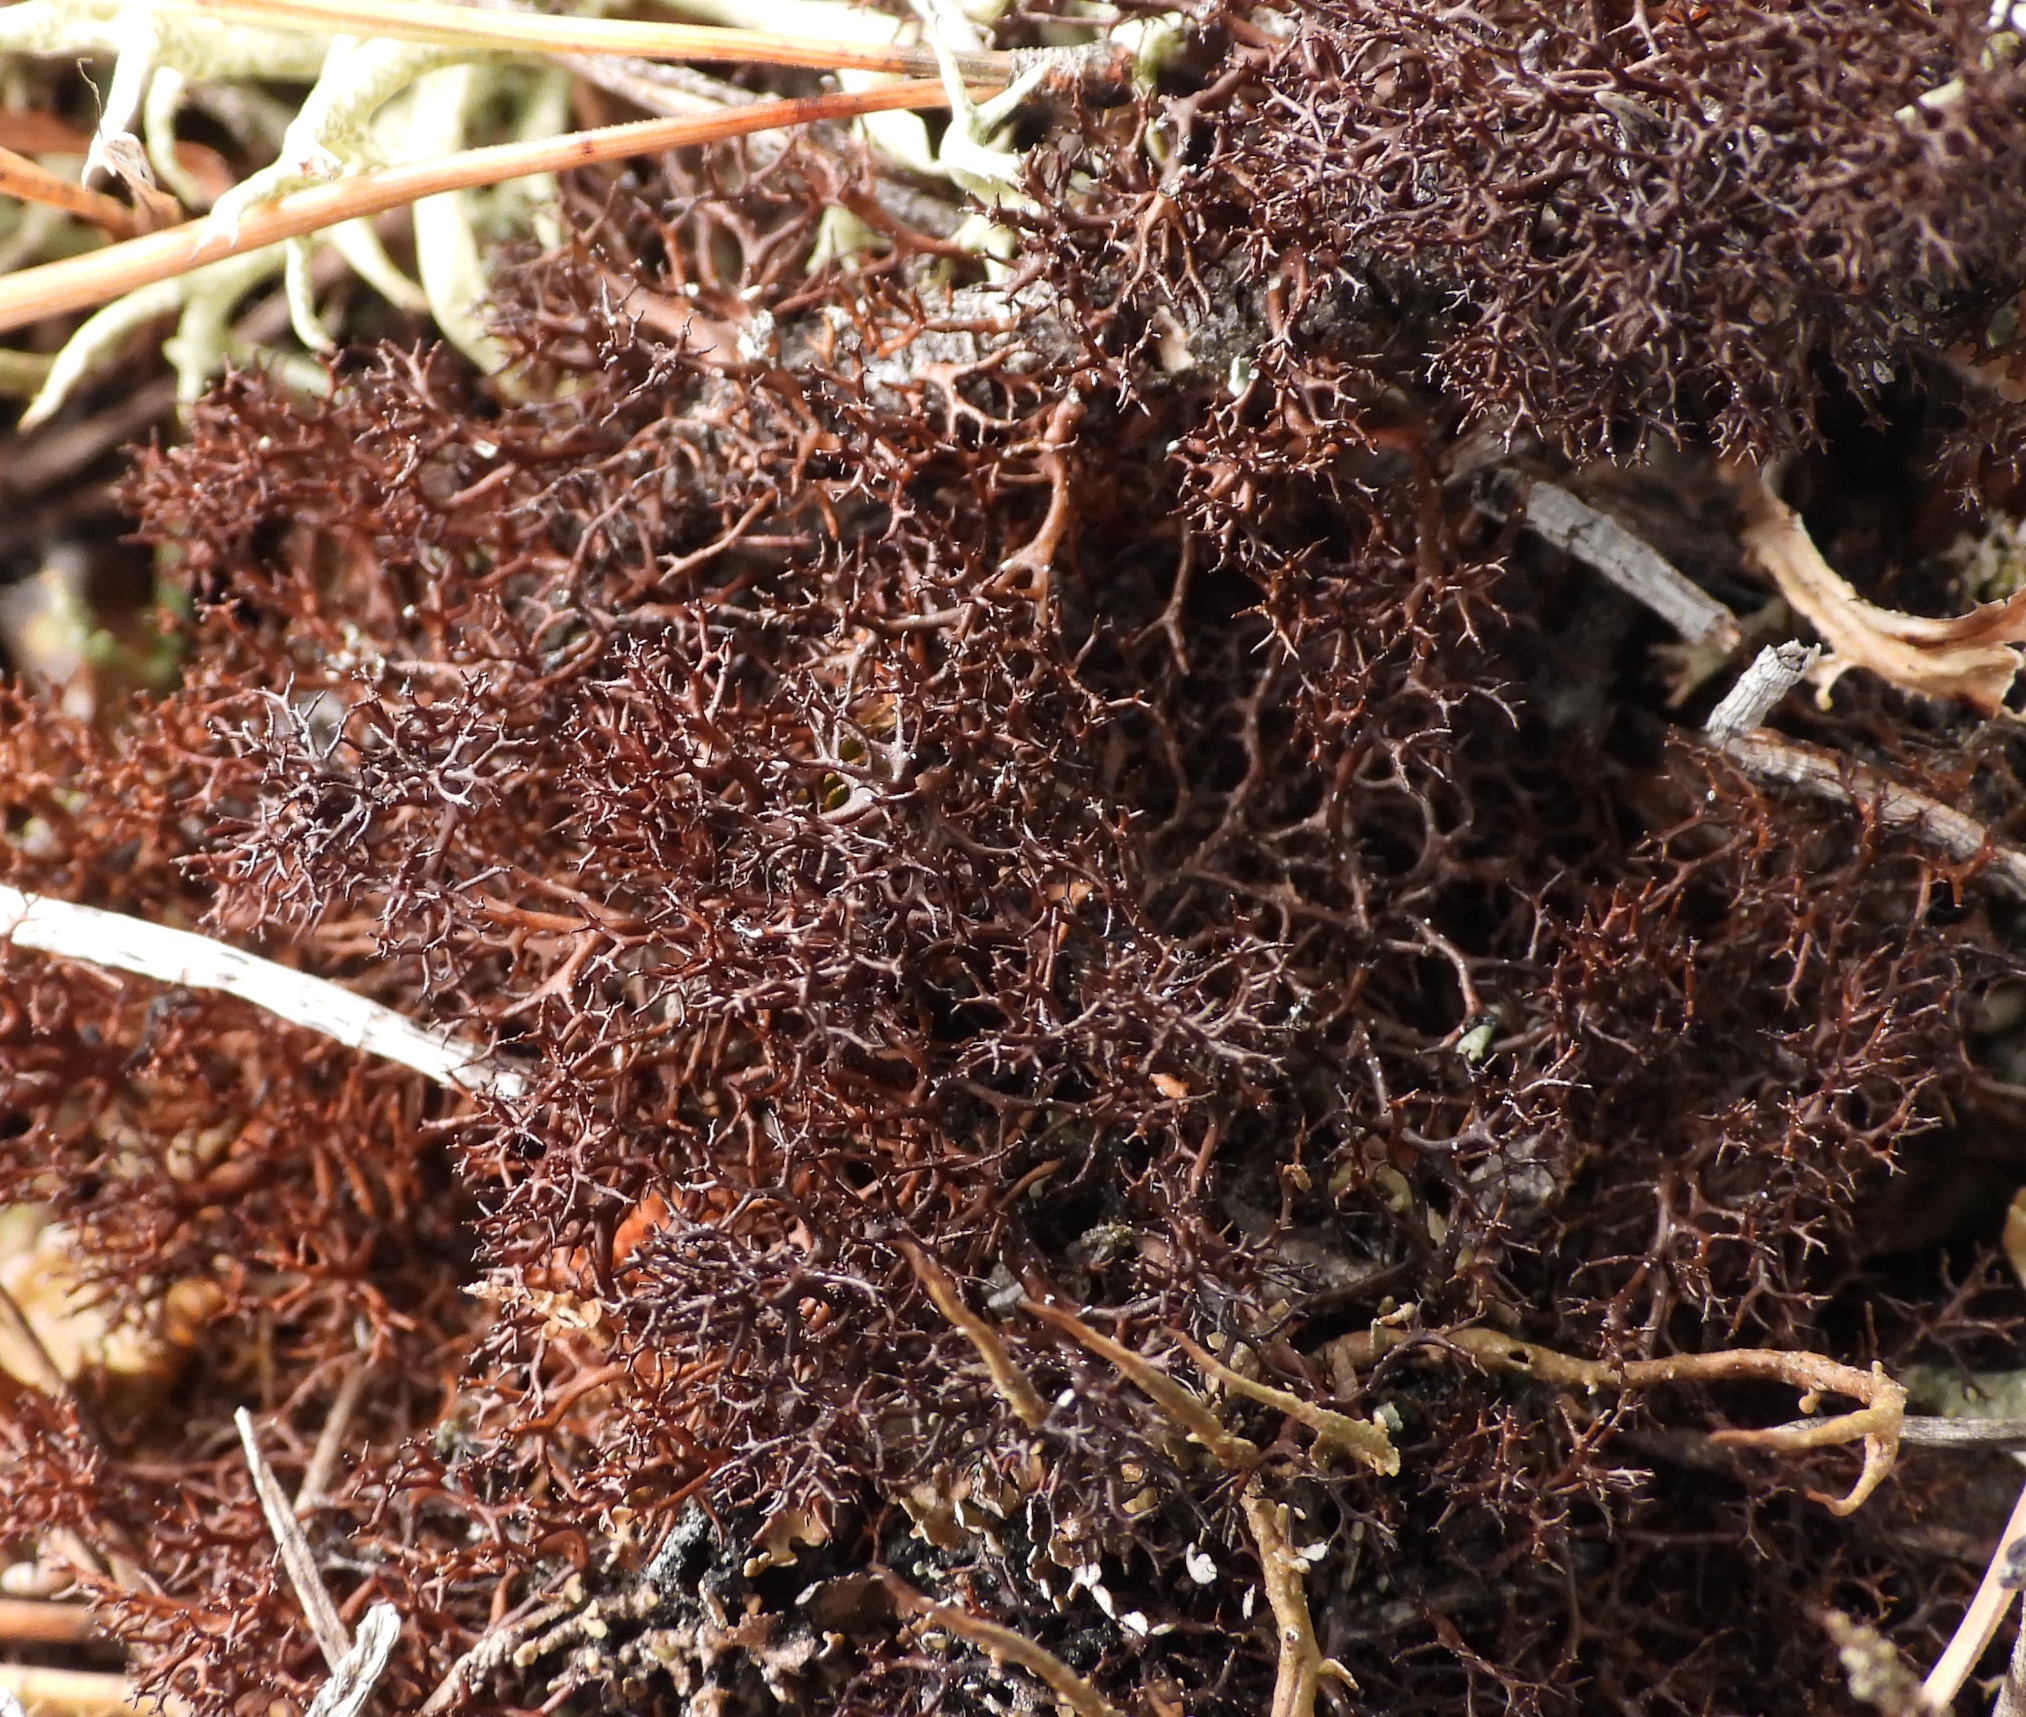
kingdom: Fungi
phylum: Ascomycota
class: Lecanoromycetes
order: Lecanorales
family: Parmeliaceae
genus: Cetraria
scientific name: Cetraria muricata
